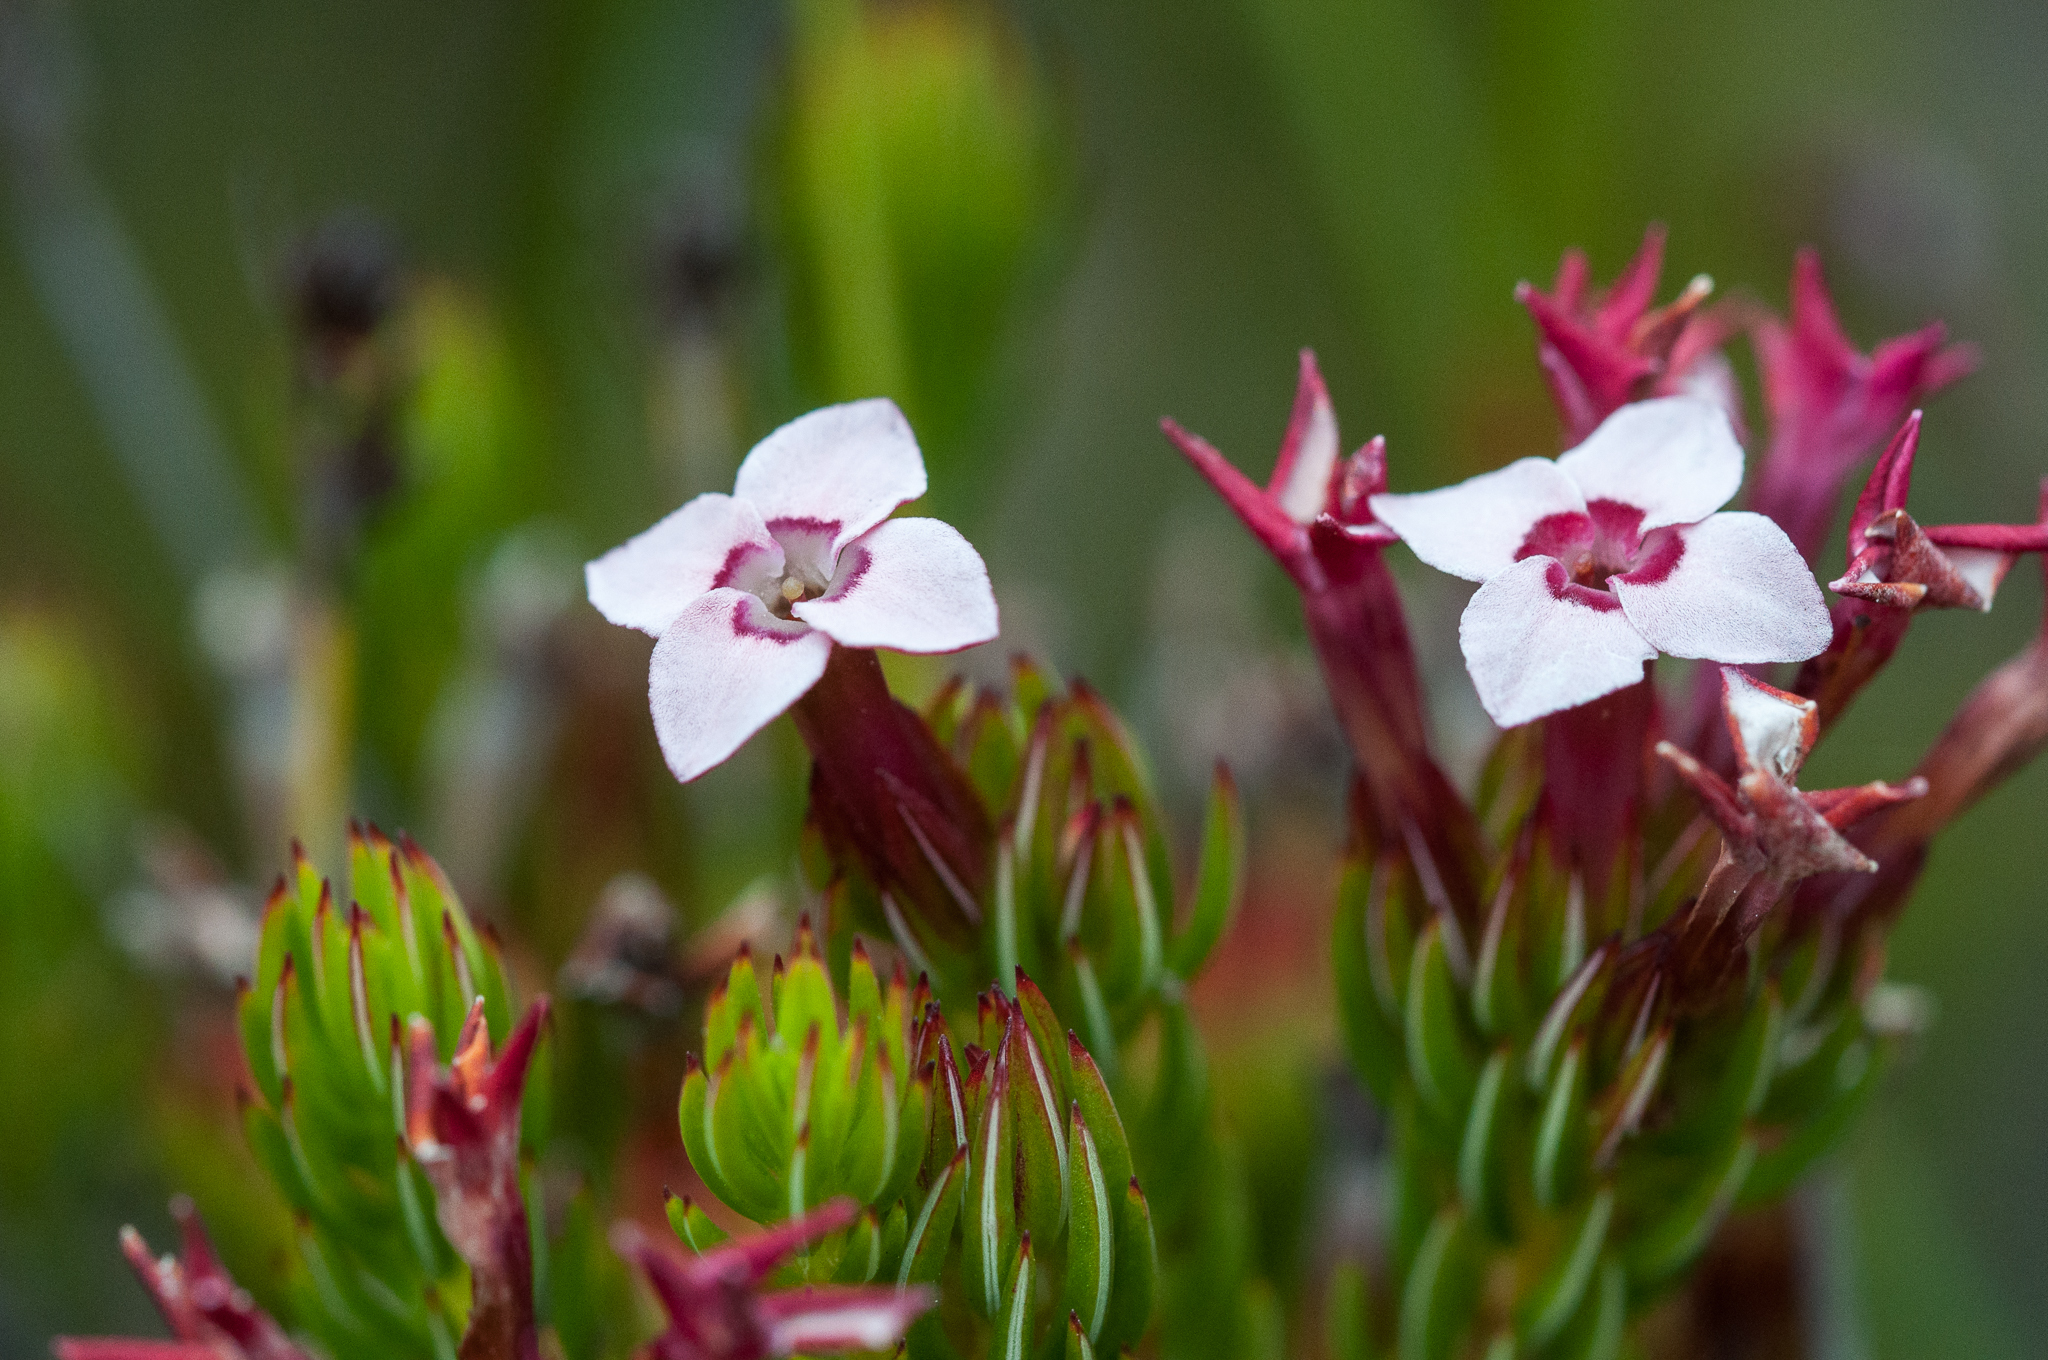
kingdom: Plantae
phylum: Tracheophyta
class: Magnoliopsida
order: Ericales
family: Ericaceae
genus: Erica
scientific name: Erica fastigiata
